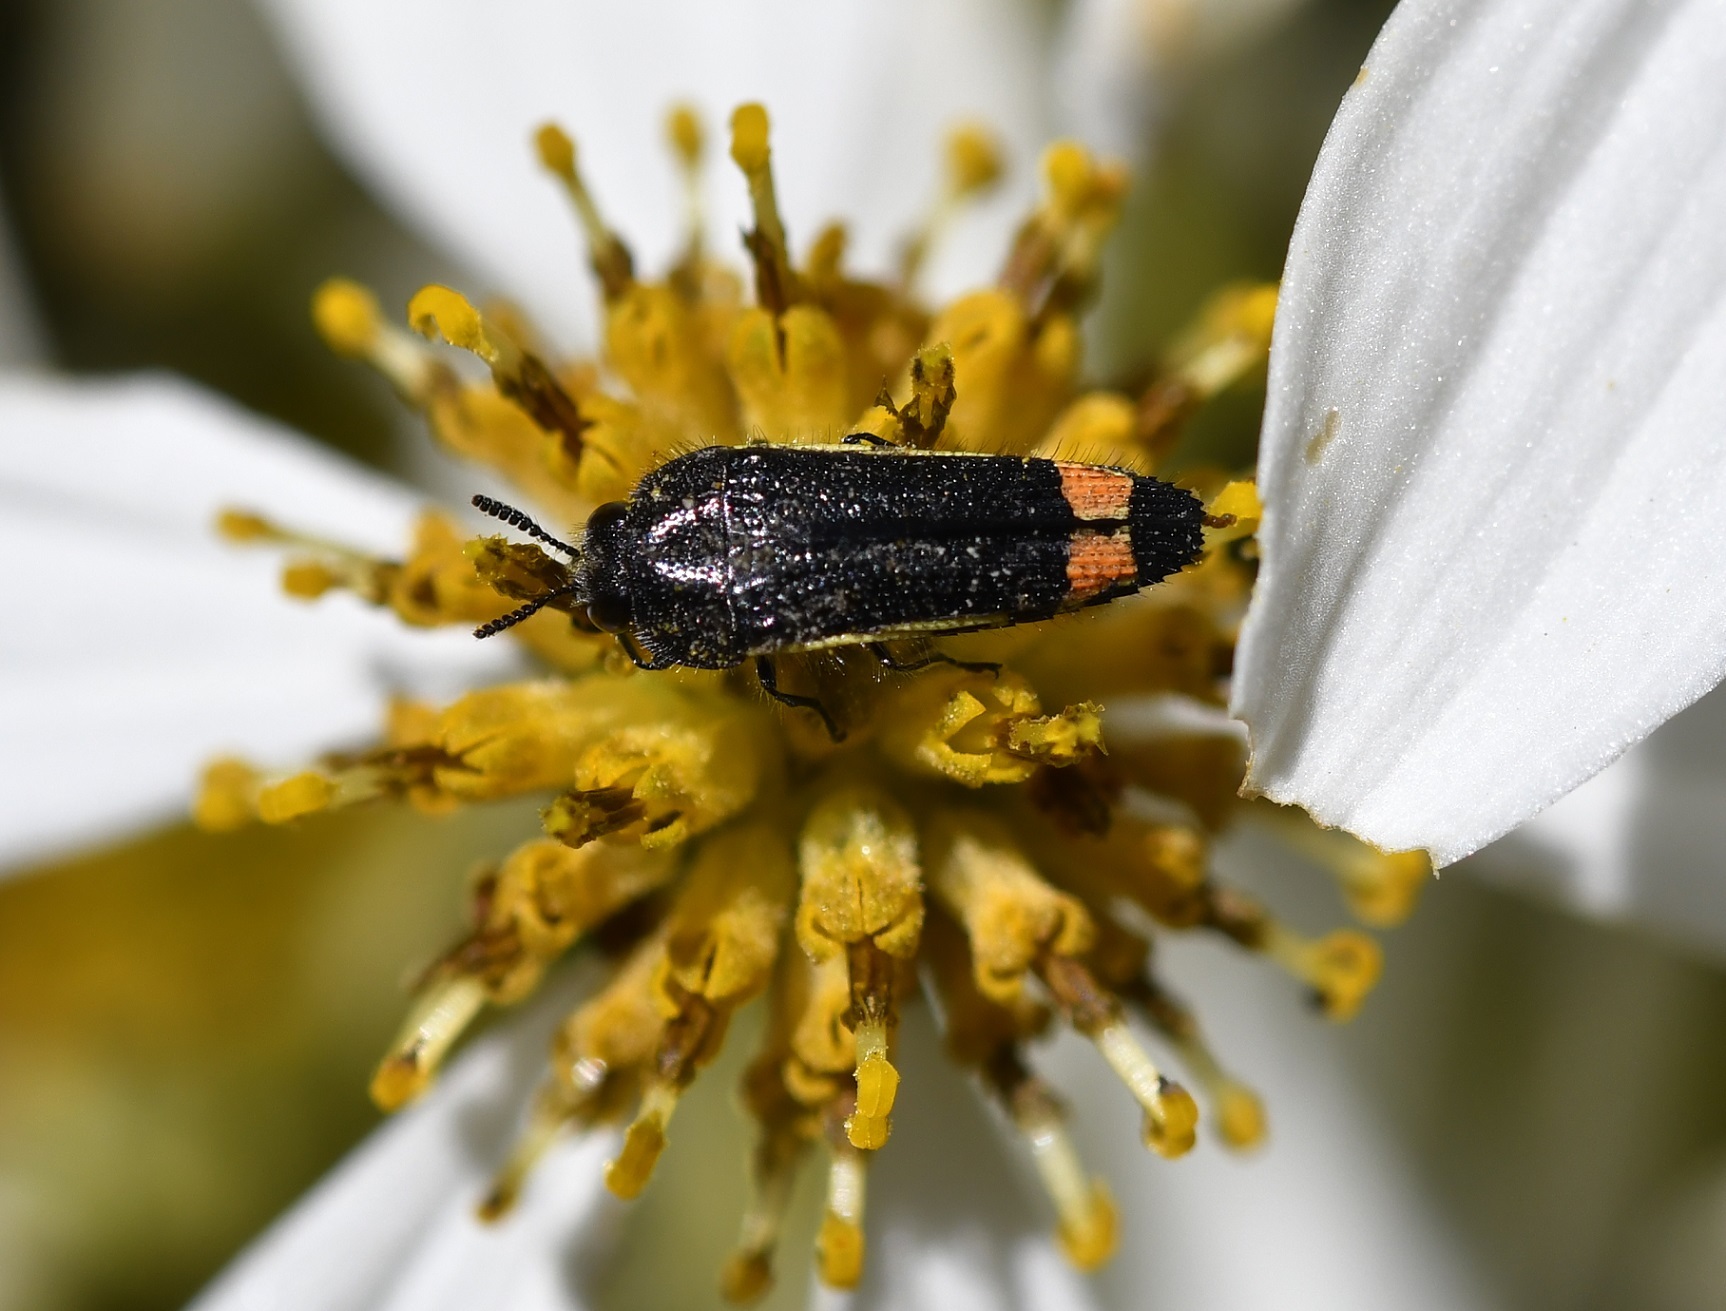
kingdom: Animalia
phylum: Arthropoda
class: Insecta
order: Coleoptera
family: Buprestidae
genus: Acmaeodera
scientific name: Acmaeodera flavomarginata
